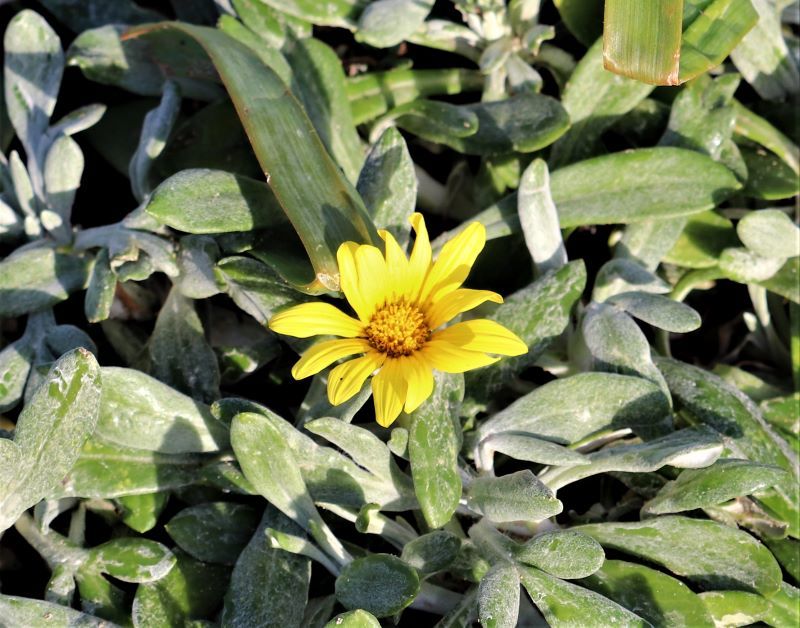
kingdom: Plantae
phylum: Tracheophyta
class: Magnoliopsida
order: Asterales
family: Asteraceae
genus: Gazania
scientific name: Gazania rigens
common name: Treasureflower
